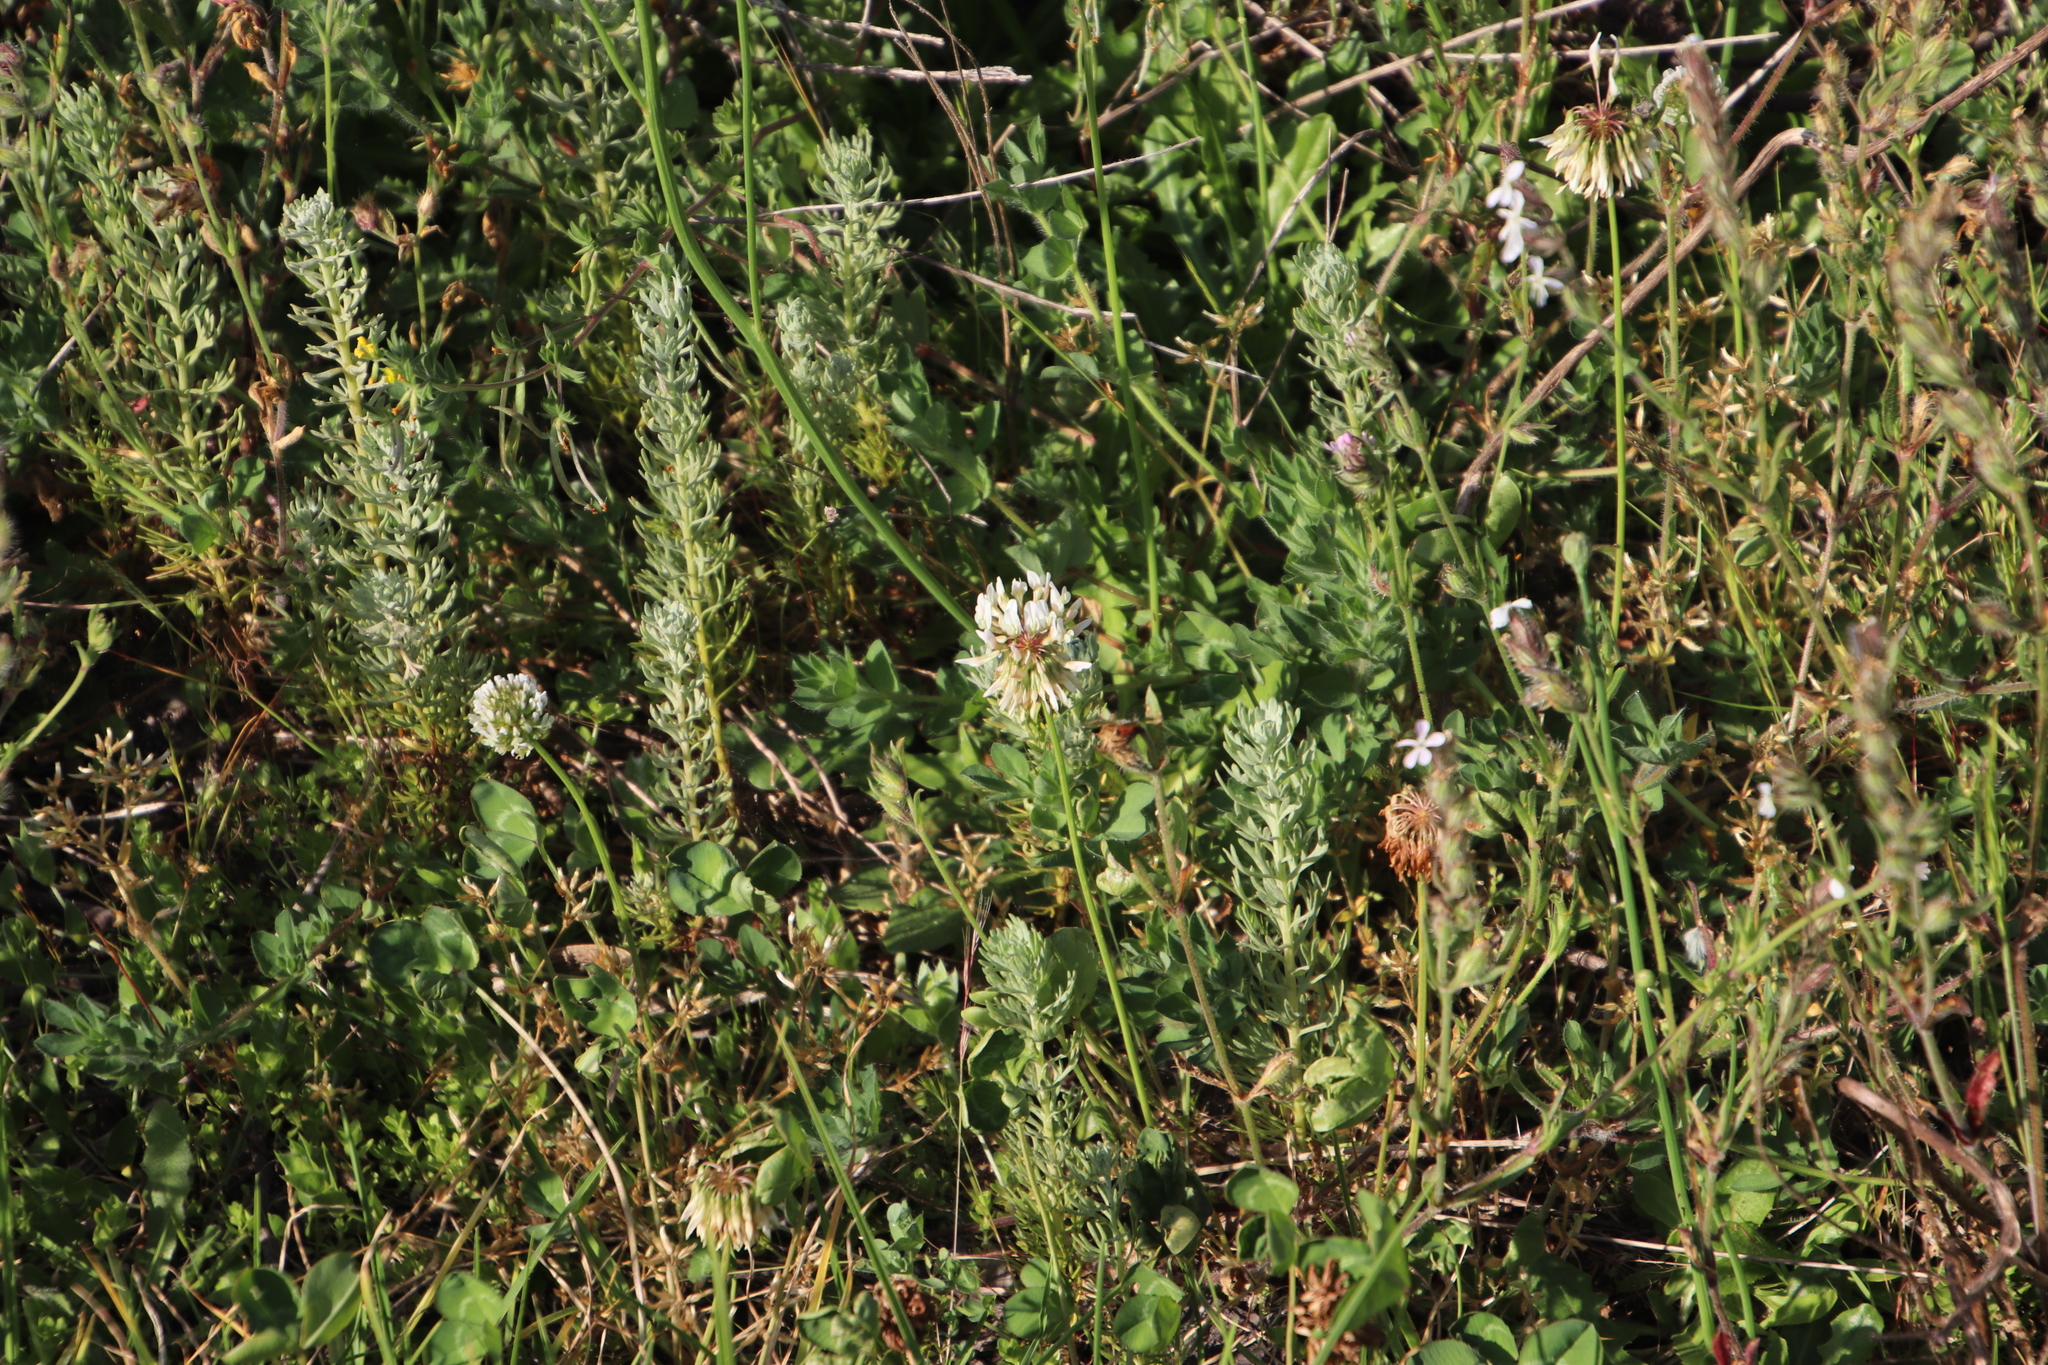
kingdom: Plantae
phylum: Tracheophyta
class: Magnoliopsida
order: Fabales
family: Fabaceae
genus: Trifolium
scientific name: Trifolium repens
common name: White clover
